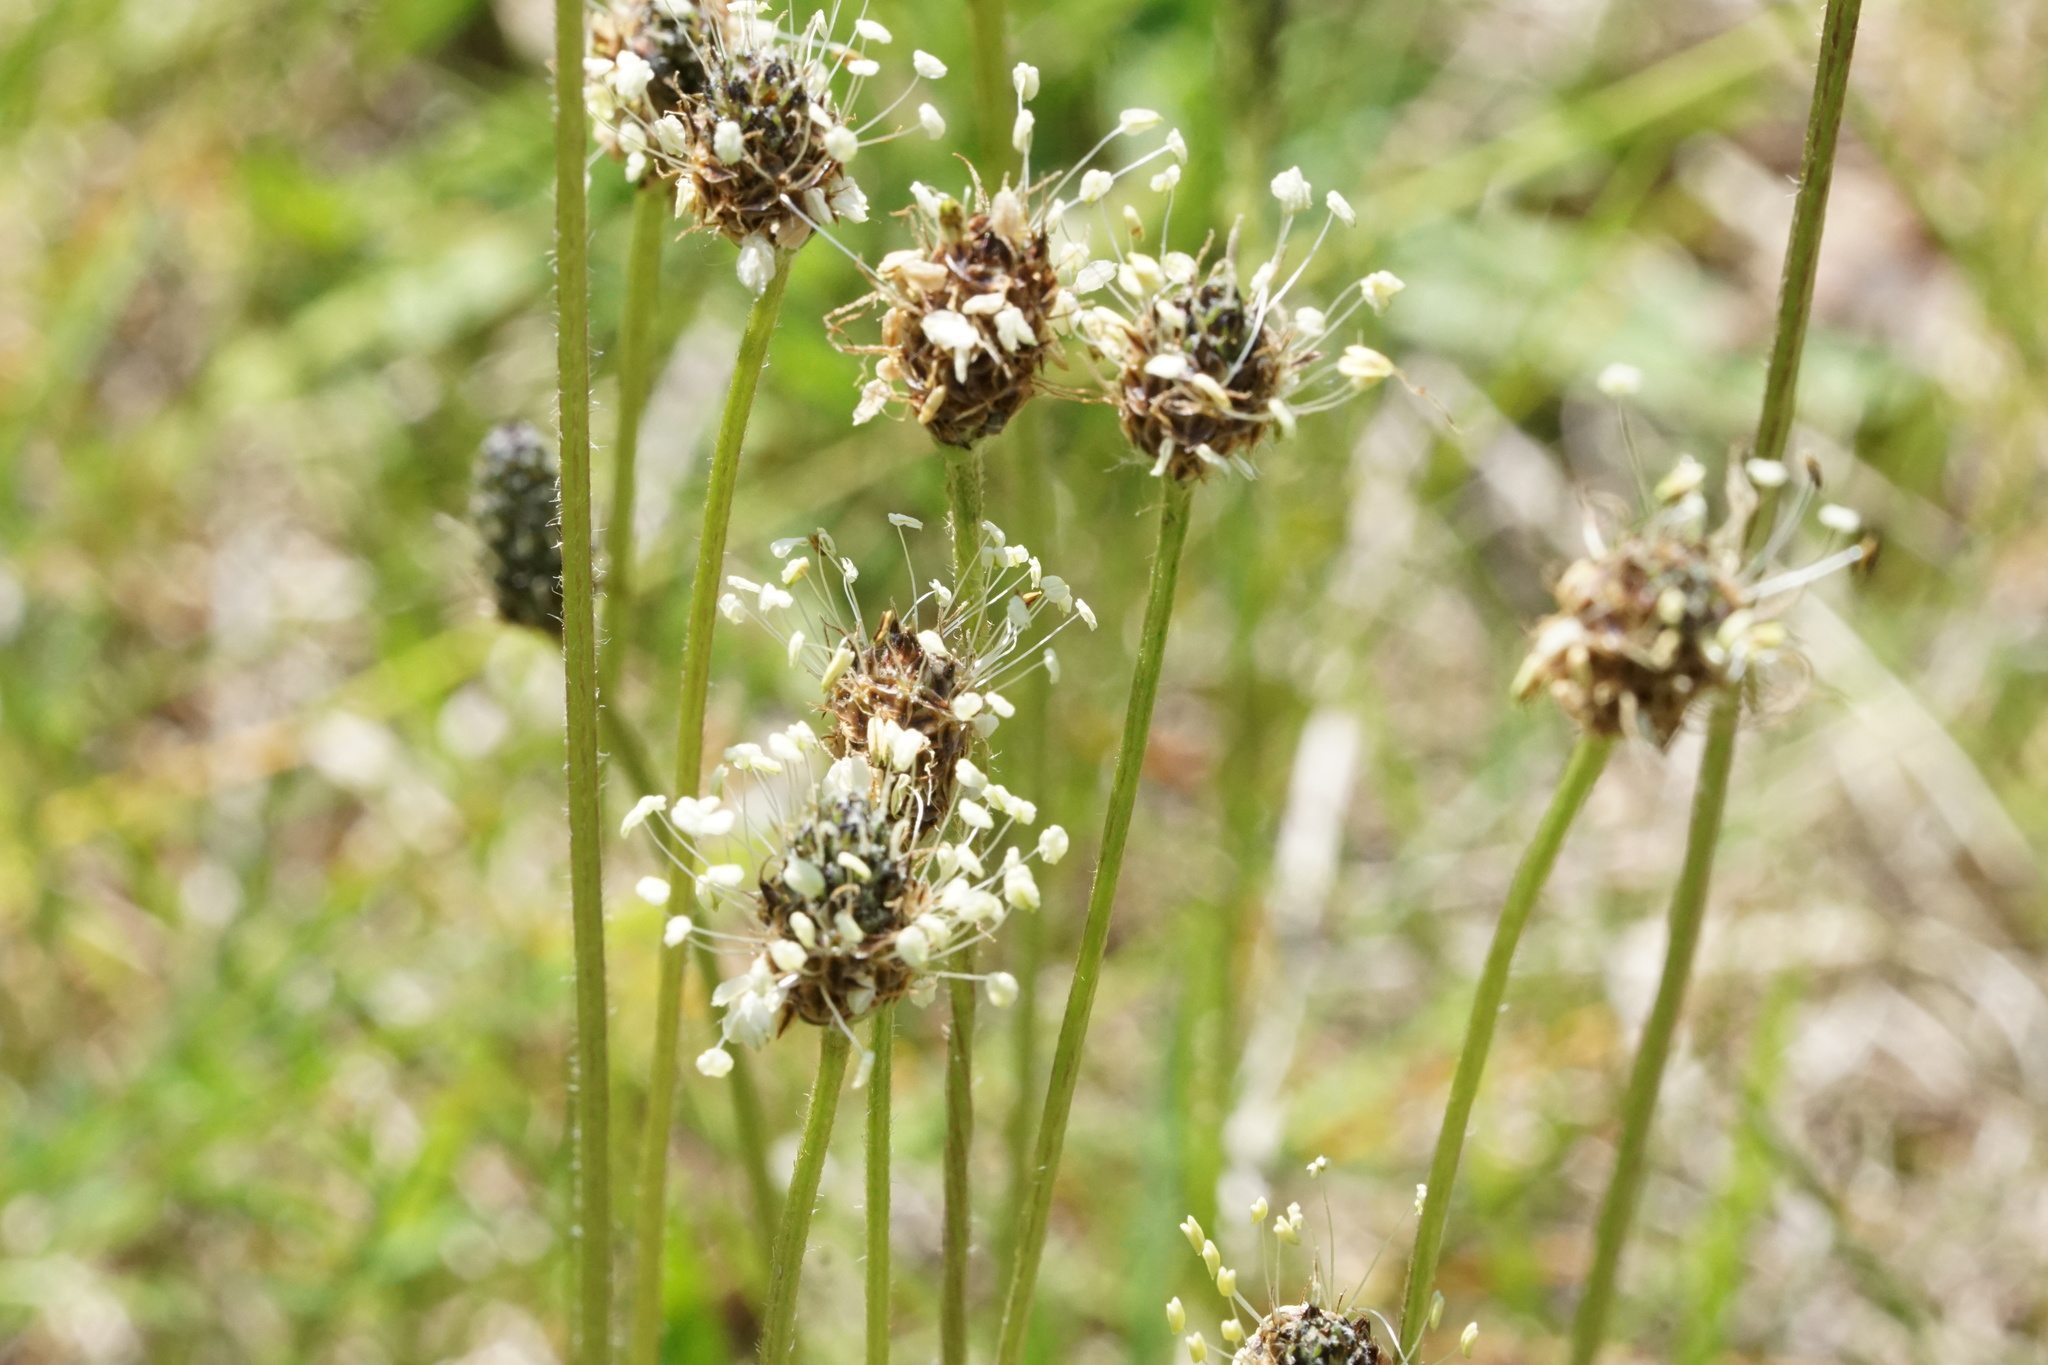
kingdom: Plantae
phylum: Tracheophyta
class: Magnoliopsida
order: Lamiales
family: Plantaginaceae
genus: Plantago
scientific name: Plantago lanceolata
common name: Ribwort plantain
